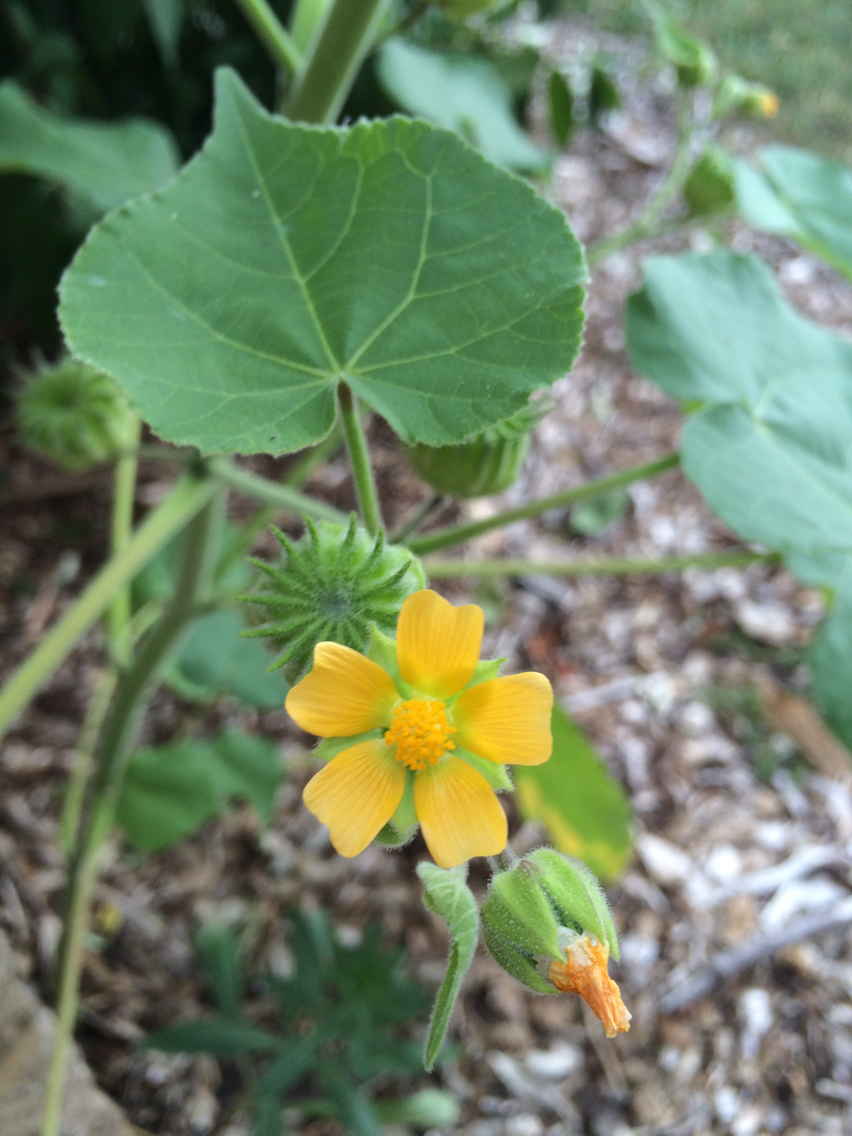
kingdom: Plantae
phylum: Tracheophyta
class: Magnoliopsida
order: Malvales
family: Malvaceae
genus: Abutilon
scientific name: Abutilon theophrasti
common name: Velvetleaf
